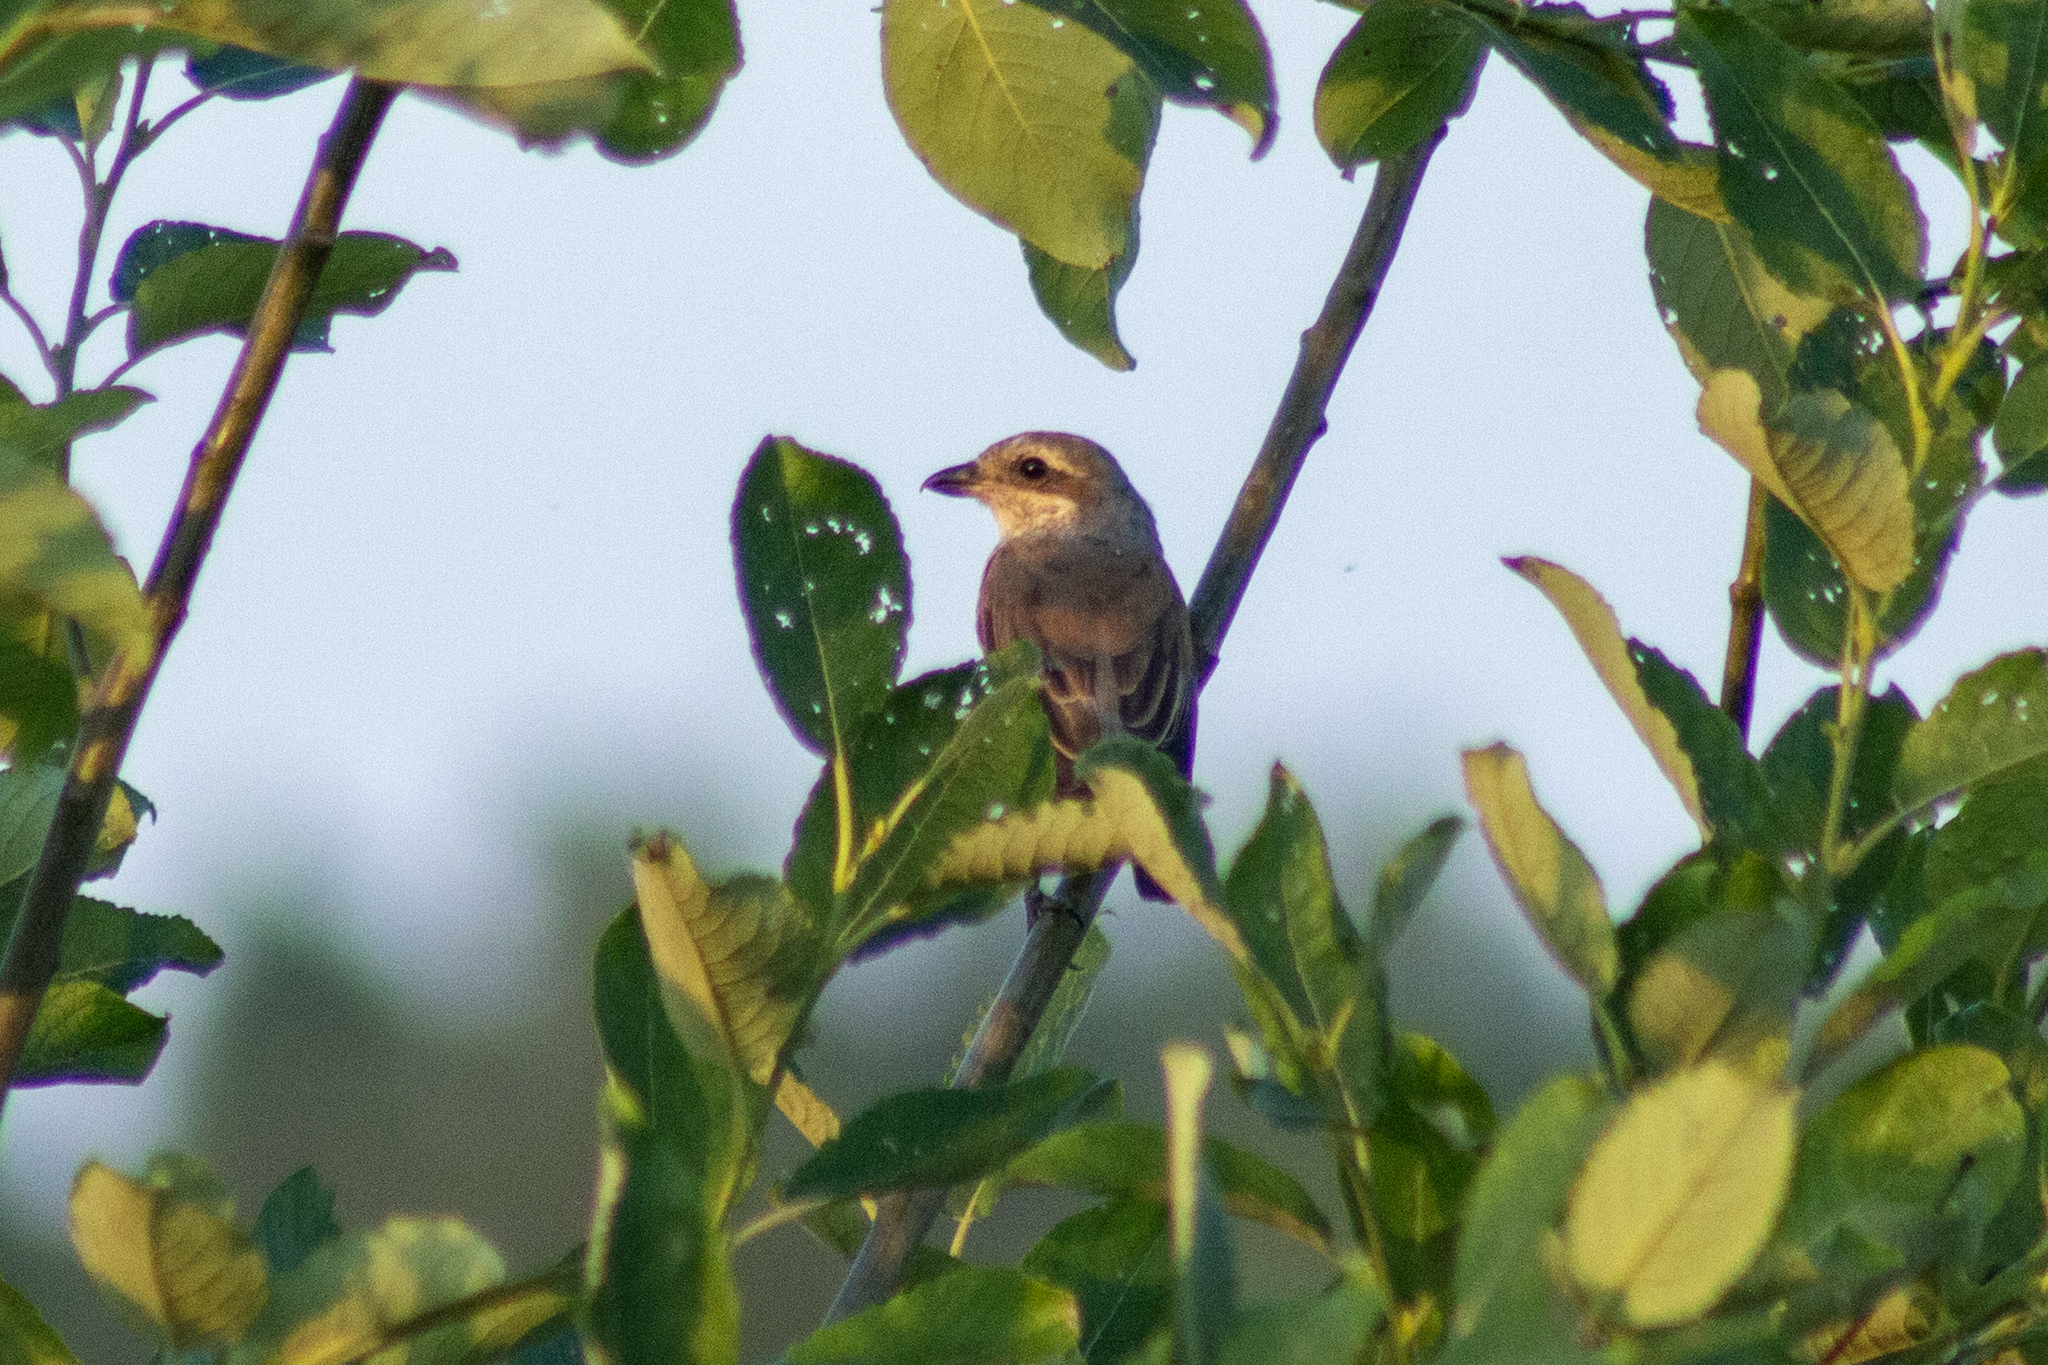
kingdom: Animalia
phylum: Chordata
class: Aves
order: Passeriformes
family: Laniidae
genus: Lanius
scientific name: Lanius collurio
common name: Red-backed shrike
